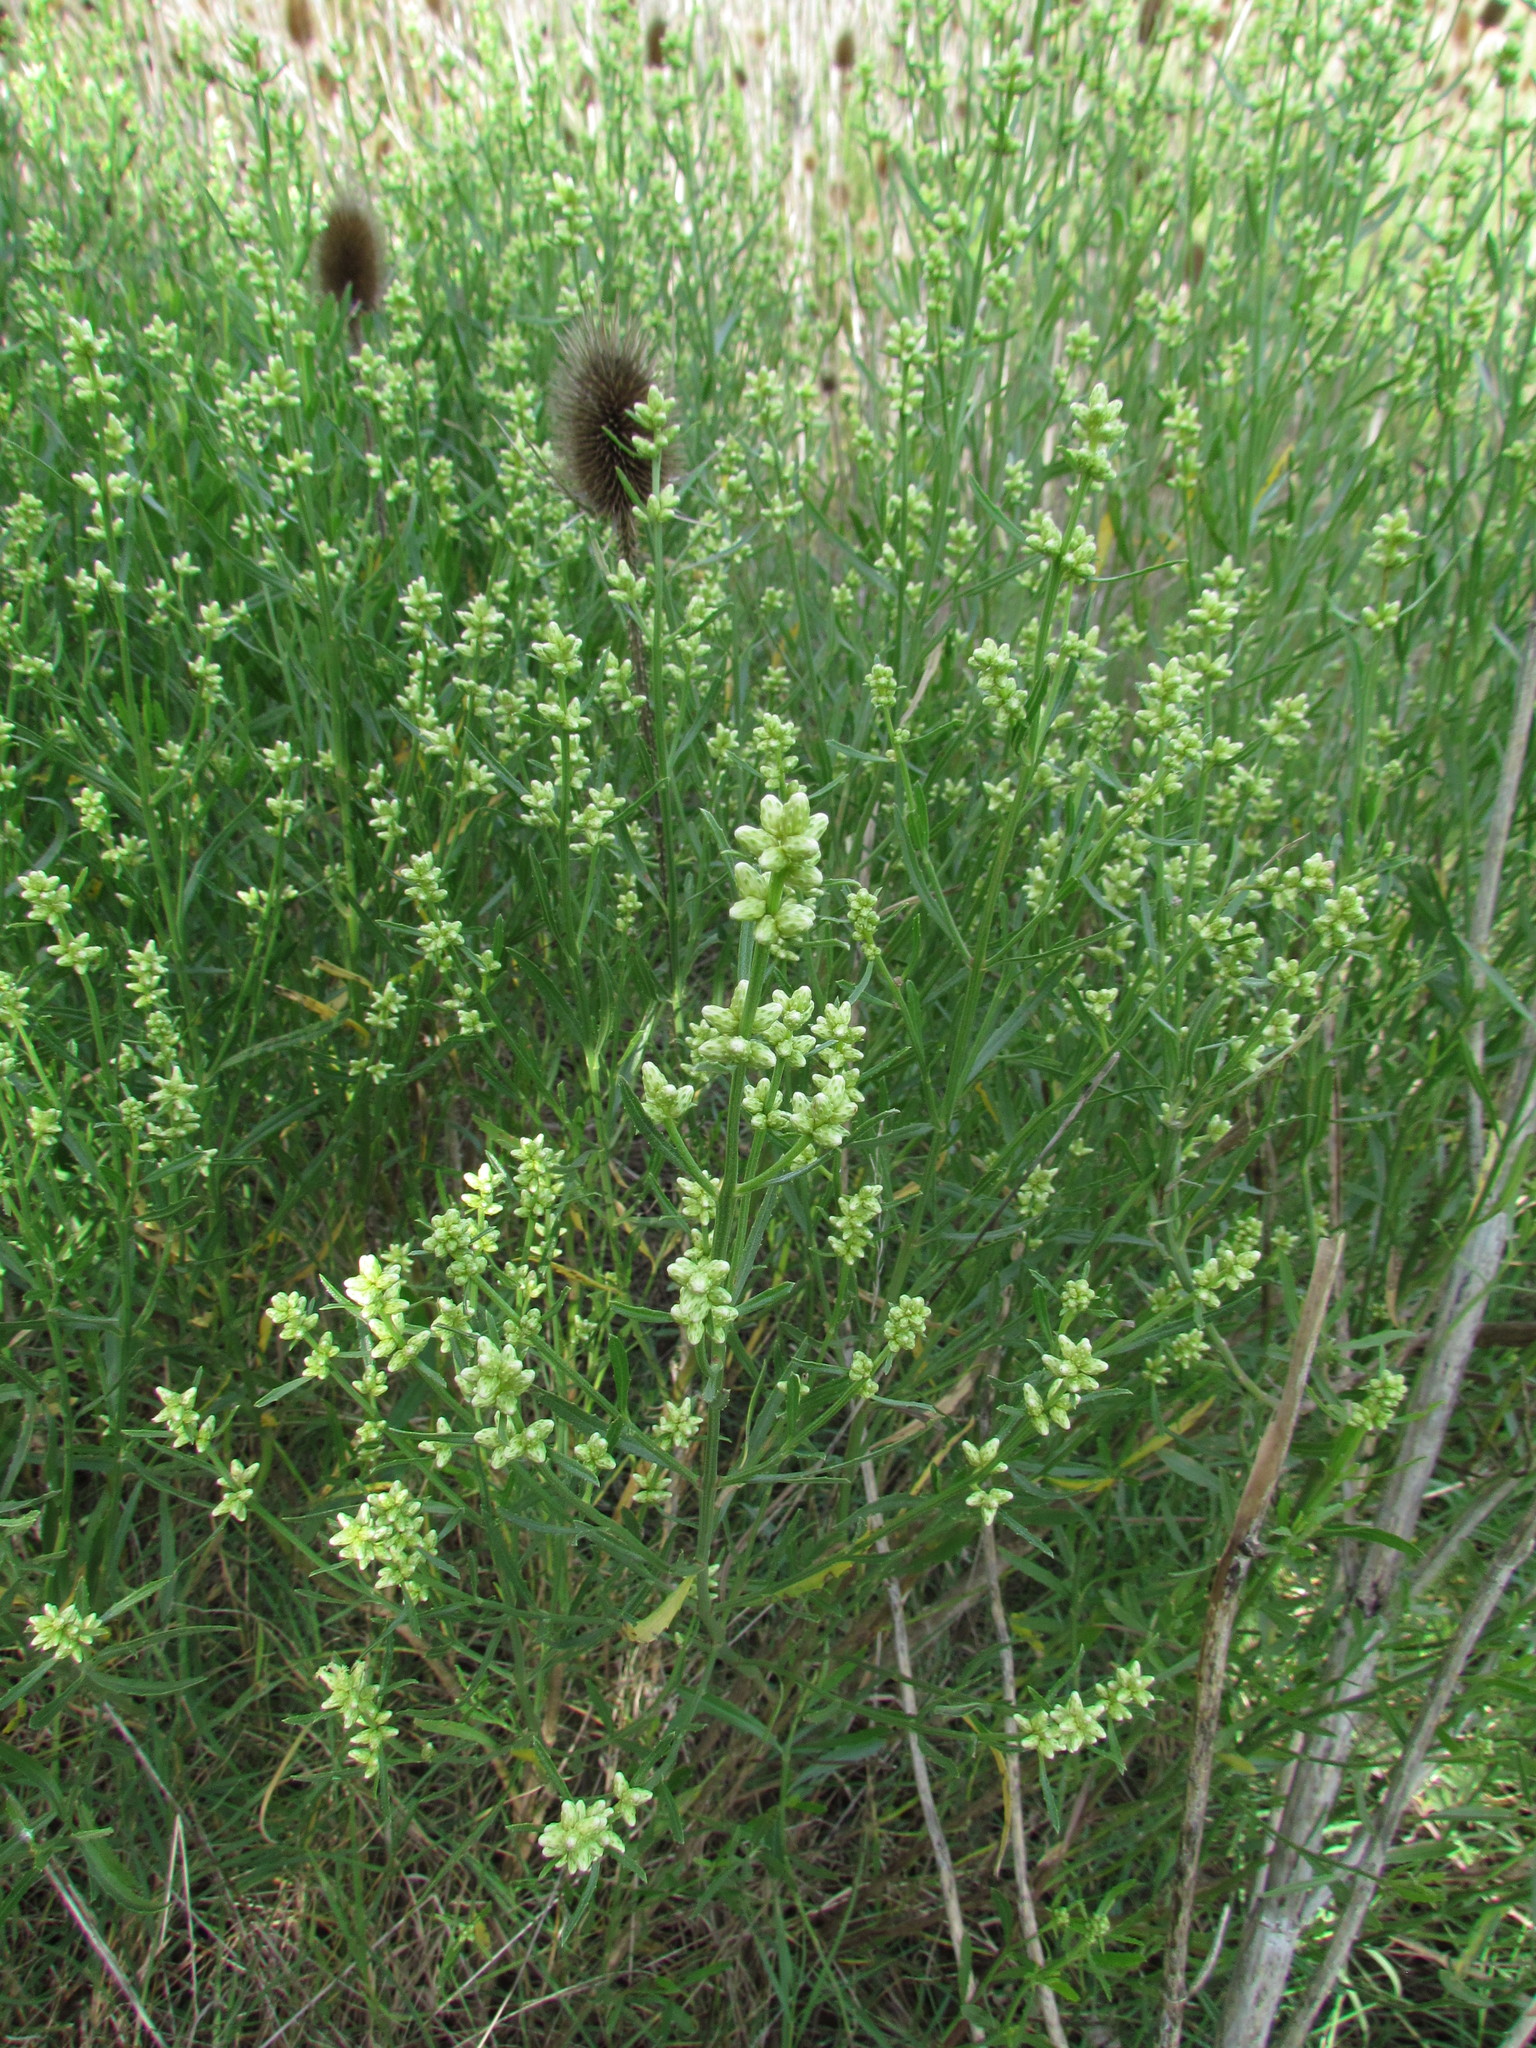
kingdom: Plantae
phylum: Tracheophyta
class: Magnoliopsida
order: Asterales
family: Asteraceae
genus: Baccharis
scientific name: Baccharis spicata
